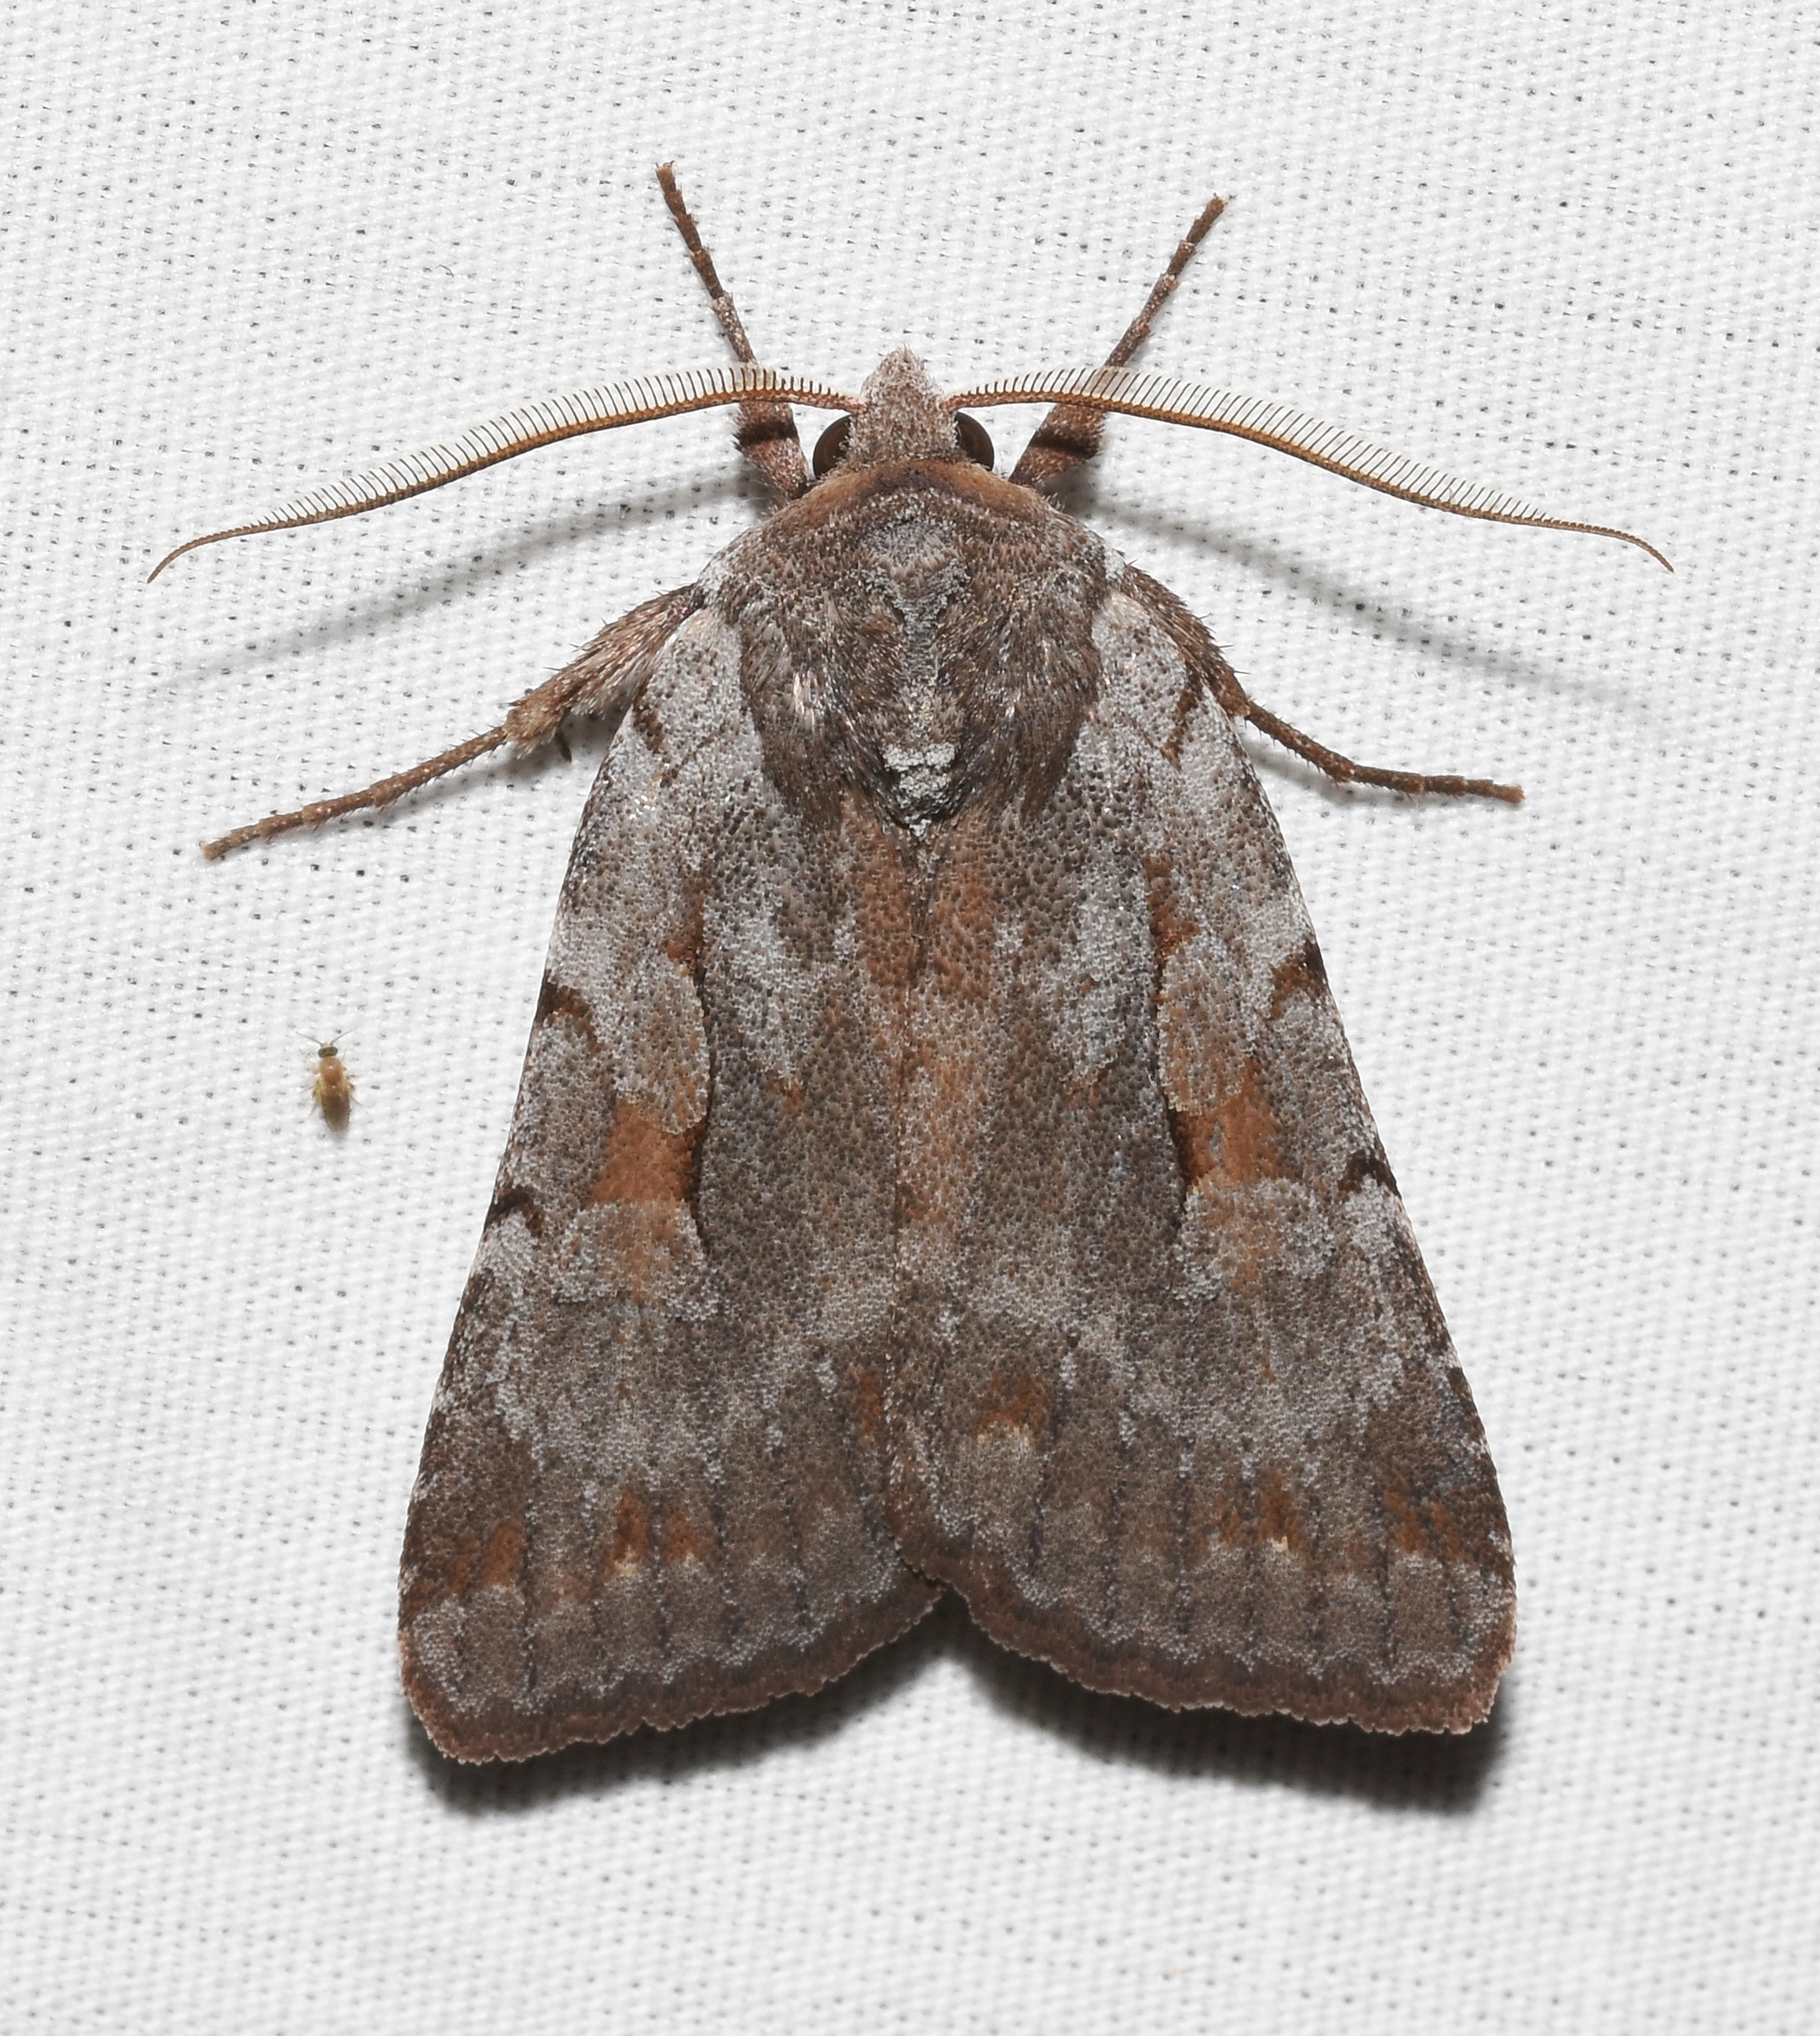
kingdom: Animalia
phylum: Arthropoda
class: Insecta
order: Lepidoptera
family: Noctuidae
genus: Xestia
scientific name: Xestia elimata
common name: Chameleon caterpillar
